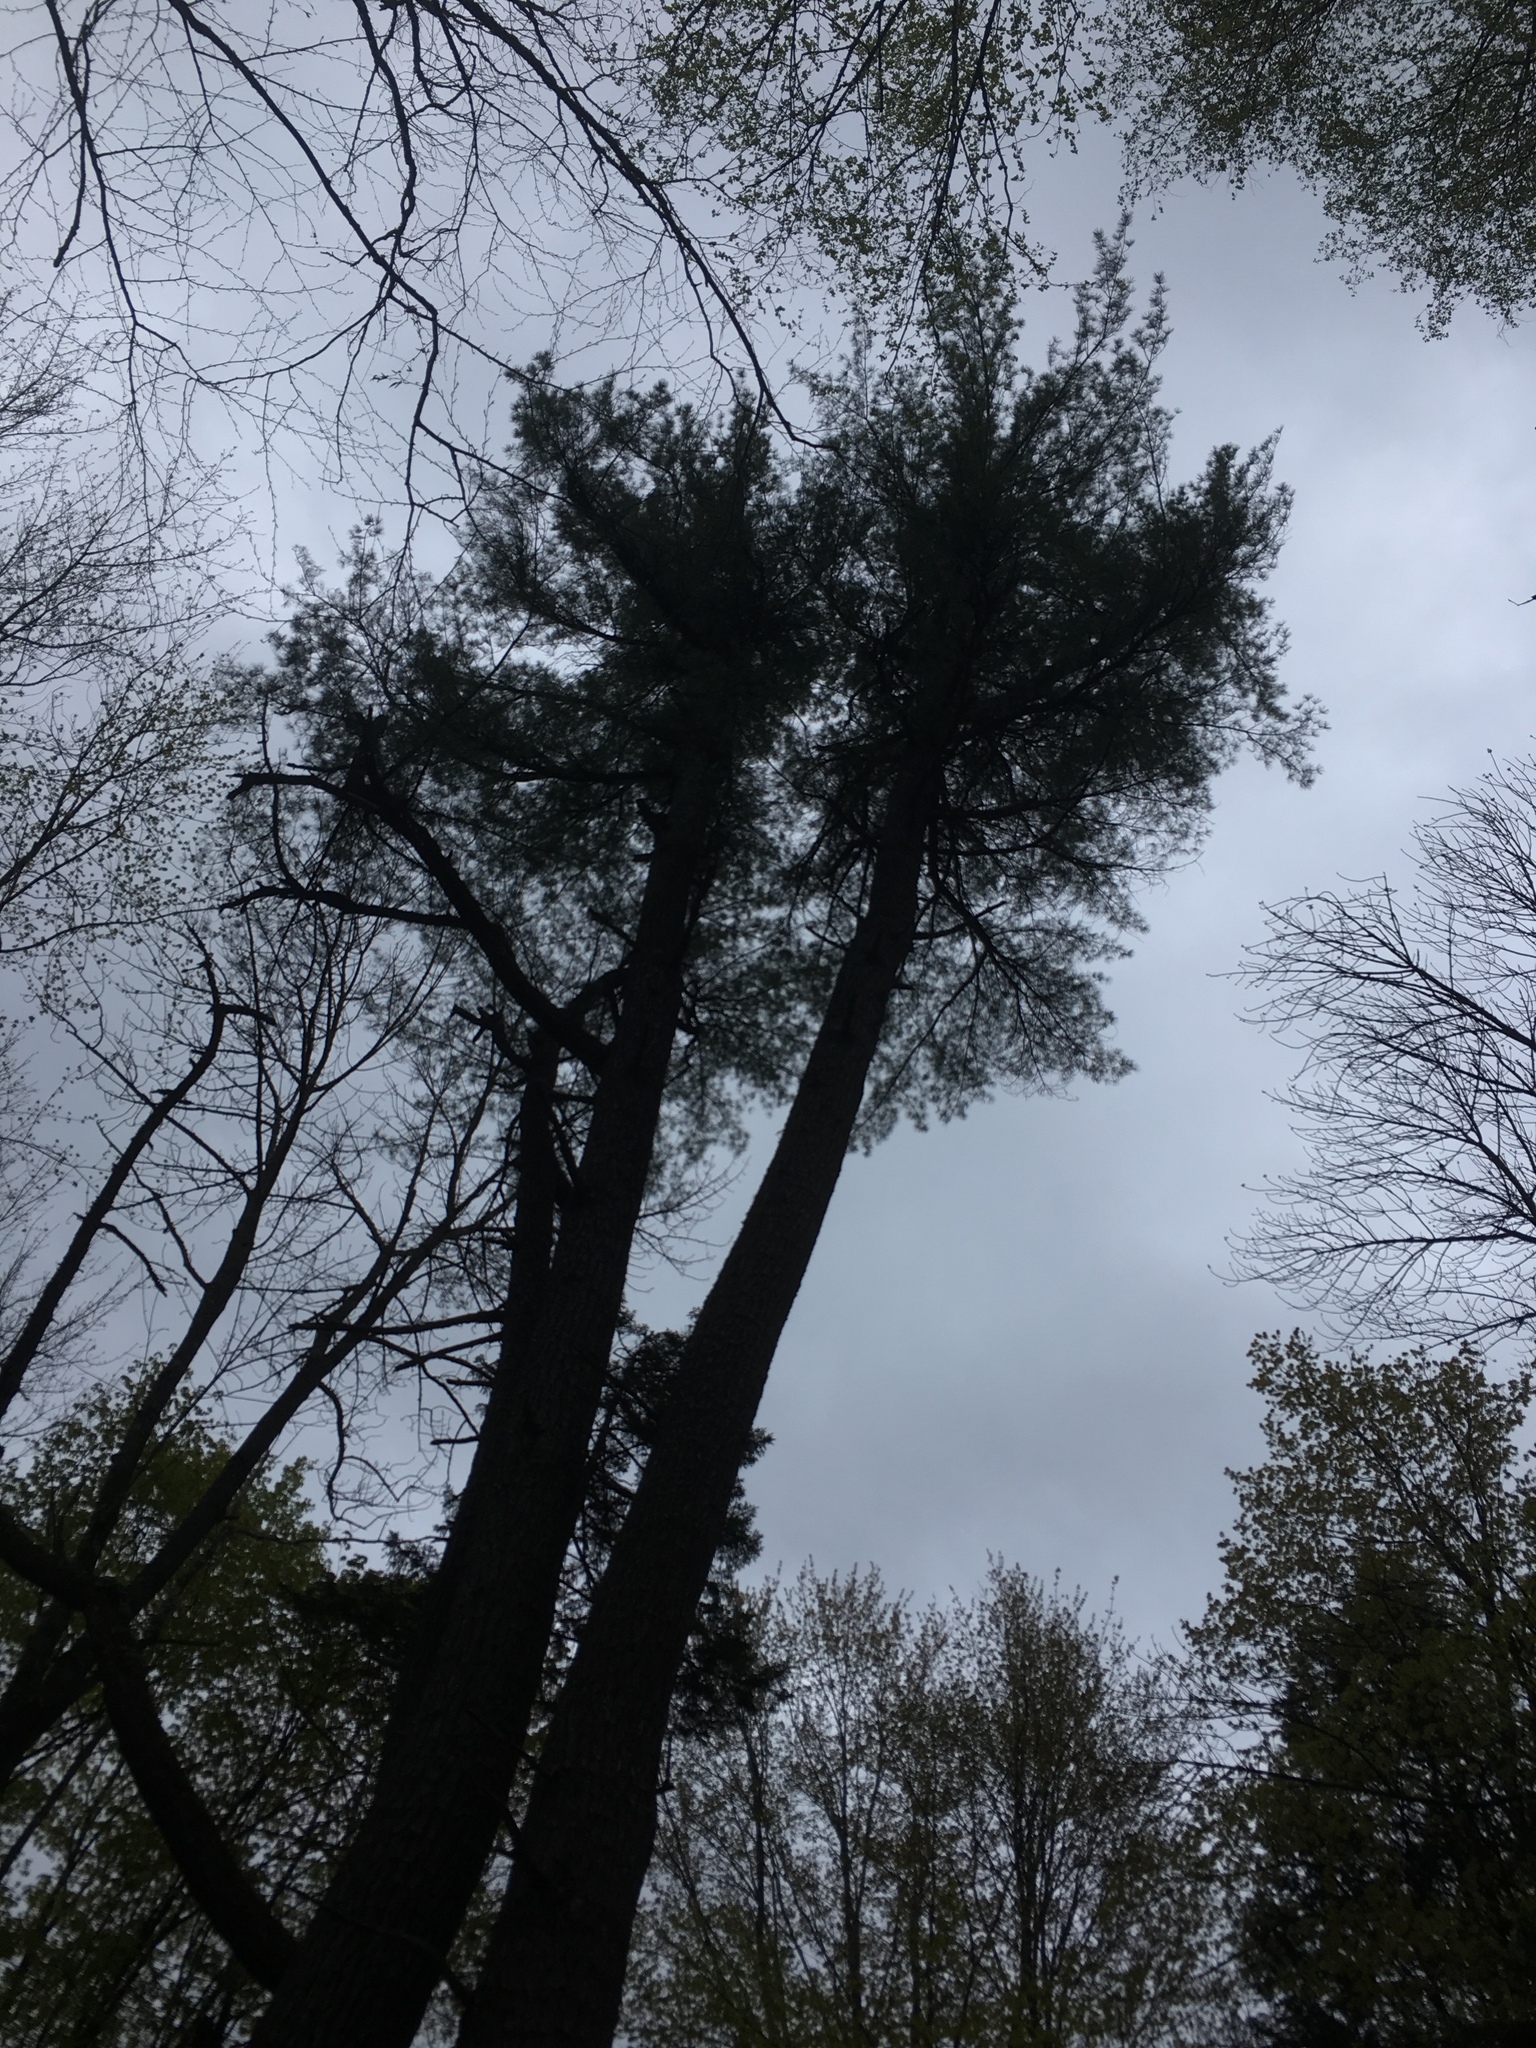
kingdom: Plantae
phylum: Tracheophyta
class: Pinopsida
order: Pinales
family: Pinaceae
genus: Pinus
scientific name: Pinus strobus
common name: Weymouth pine
